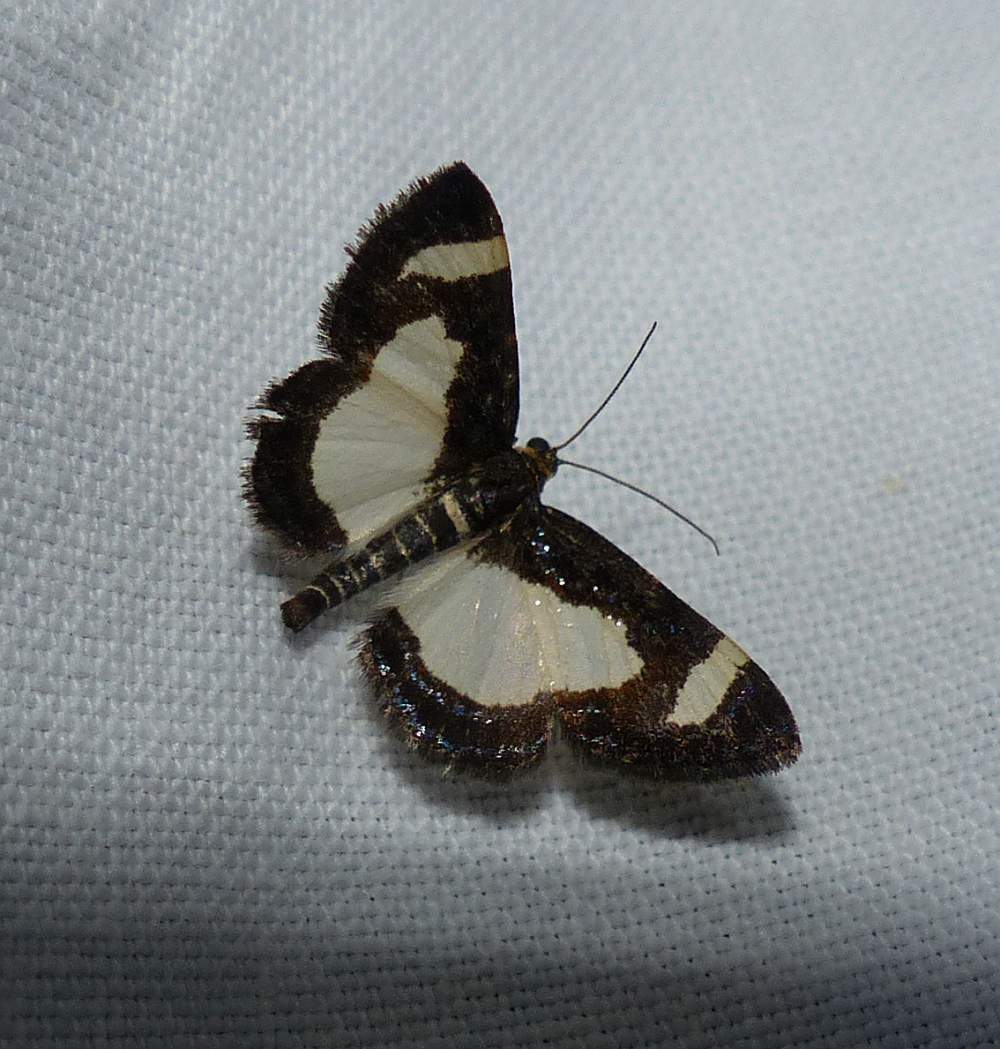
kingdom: Animalia
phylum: Arthropoda
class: Insecta
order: Lepidoptera
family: Geometridae
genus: Heliomata
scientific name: Heliomata cycladata
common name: Common spring moth
